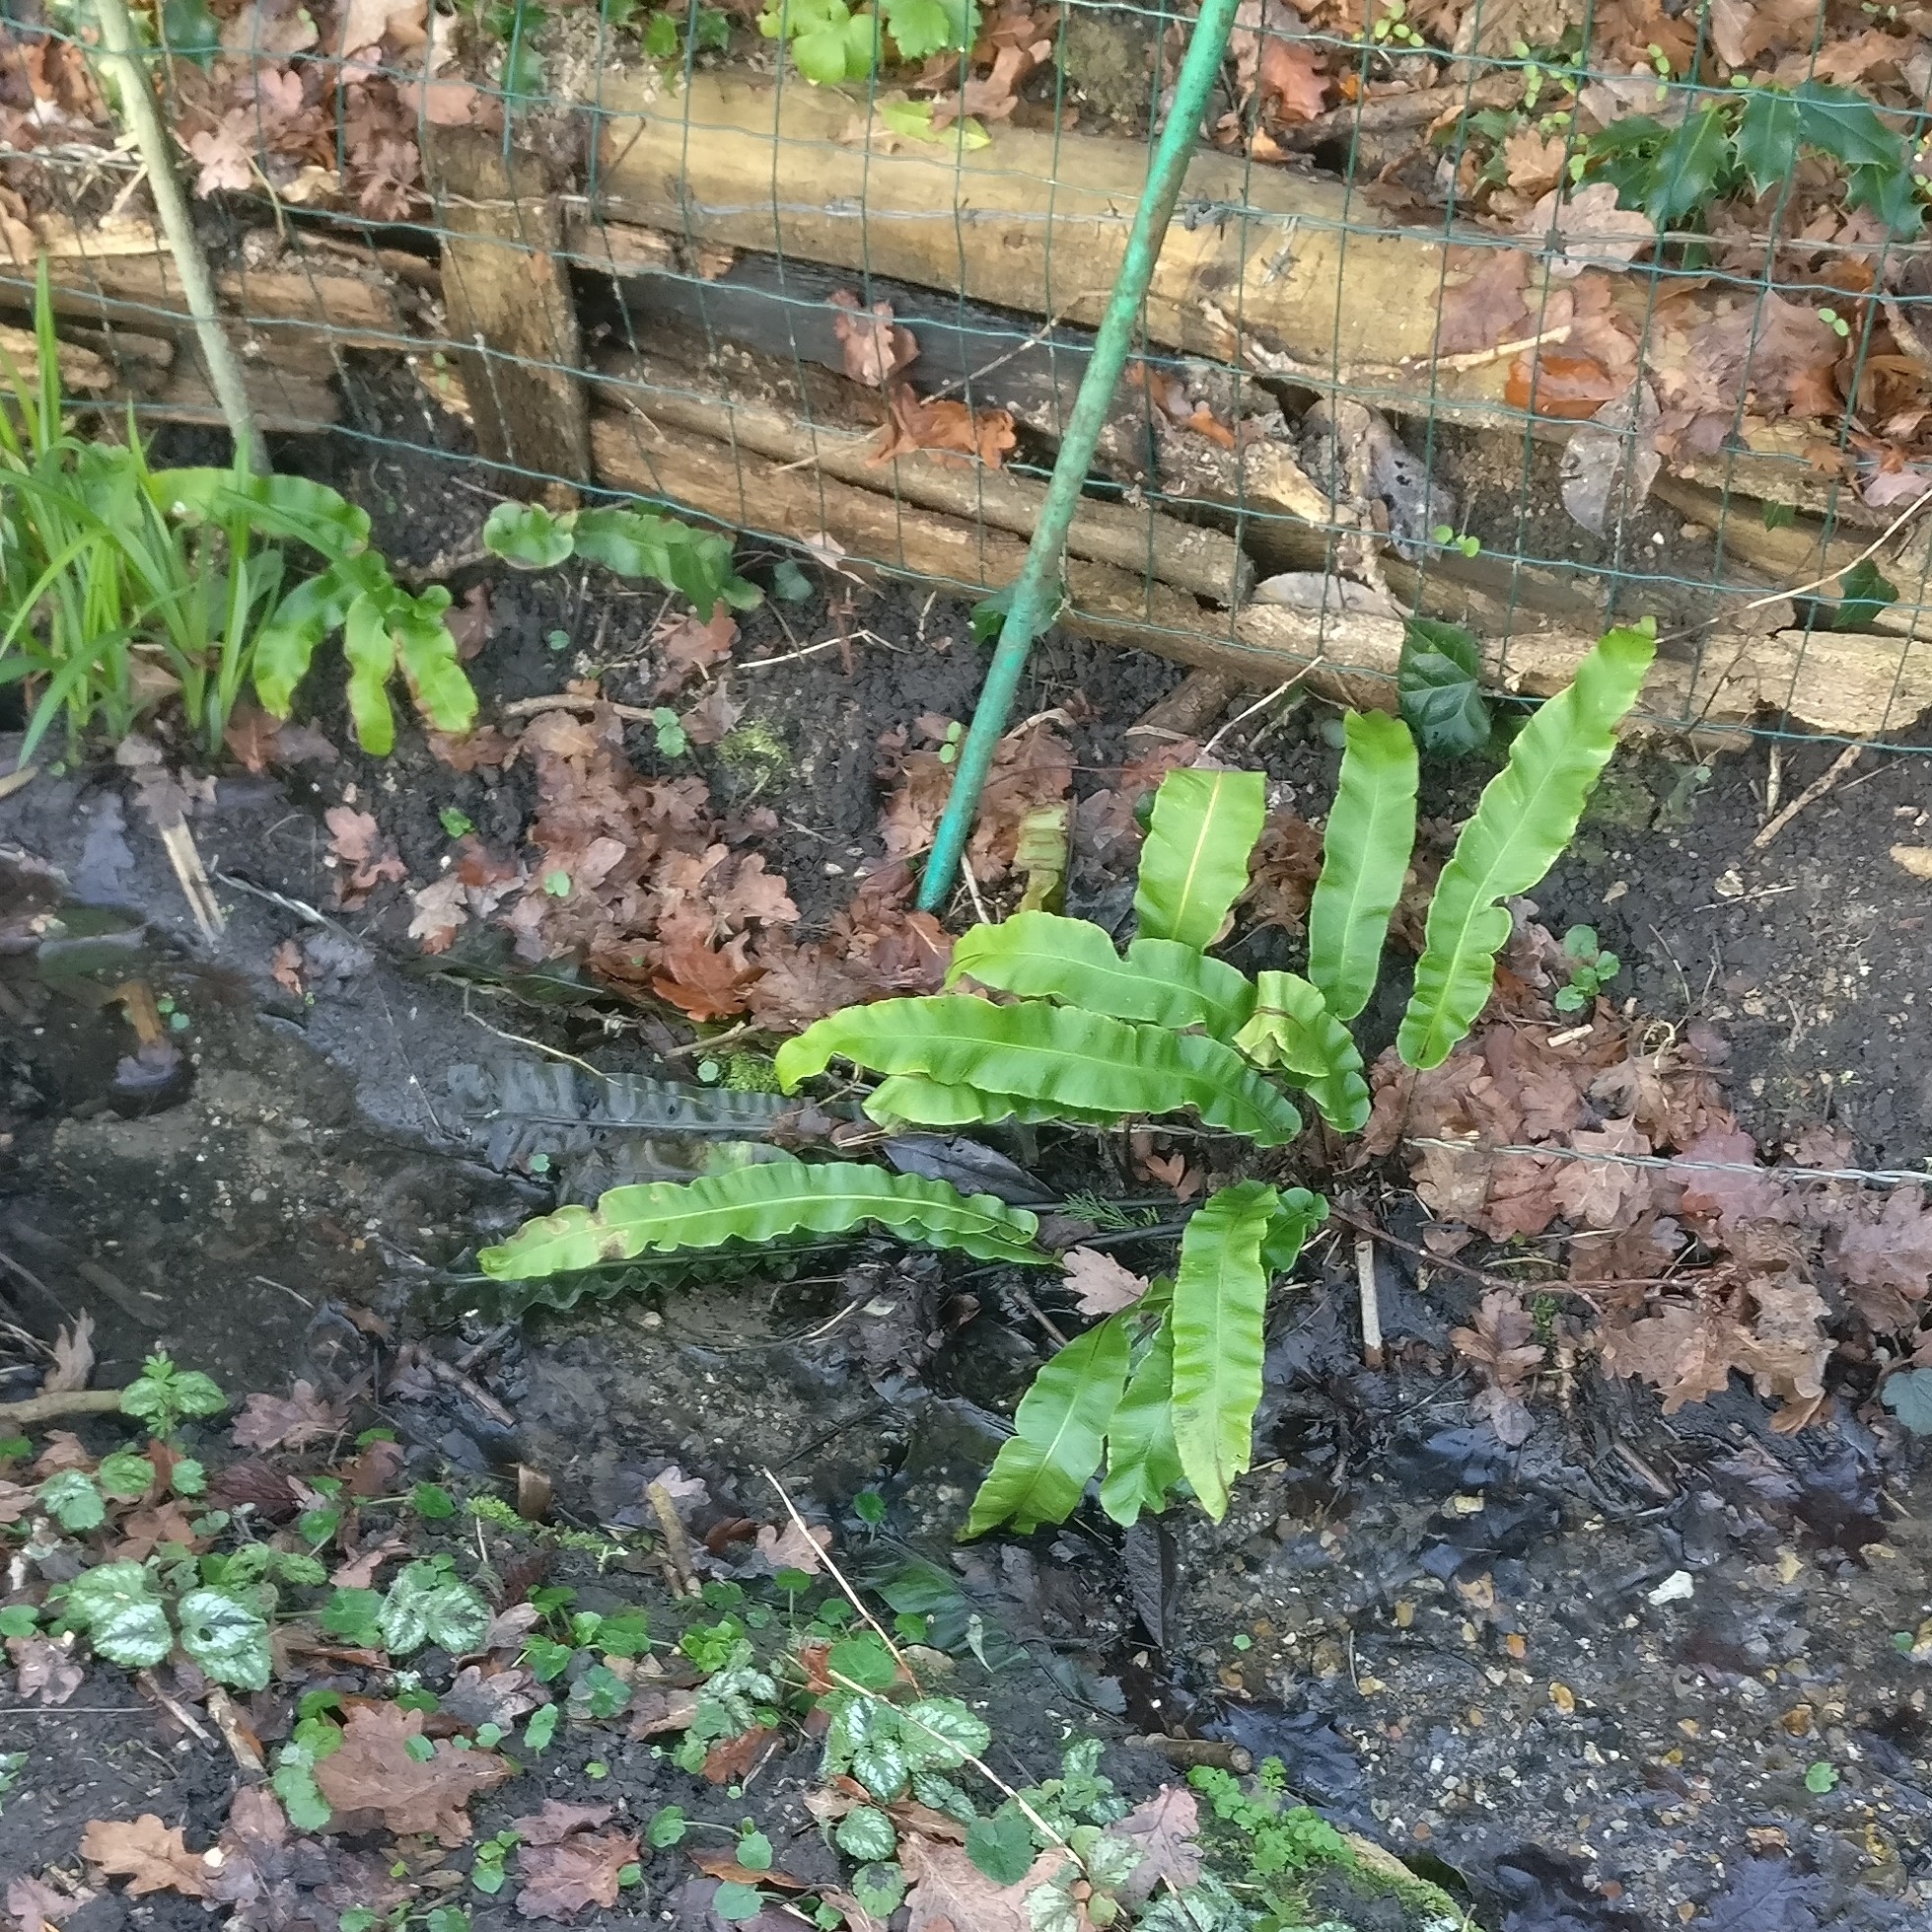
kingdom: Plantae
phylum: Tracheophyta
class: Polypodiopsida
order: Polypodiales
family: Aspleniaceae
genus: Asplenium
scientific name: Asplenium scolopendrium
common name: Hart's-tongue fern
